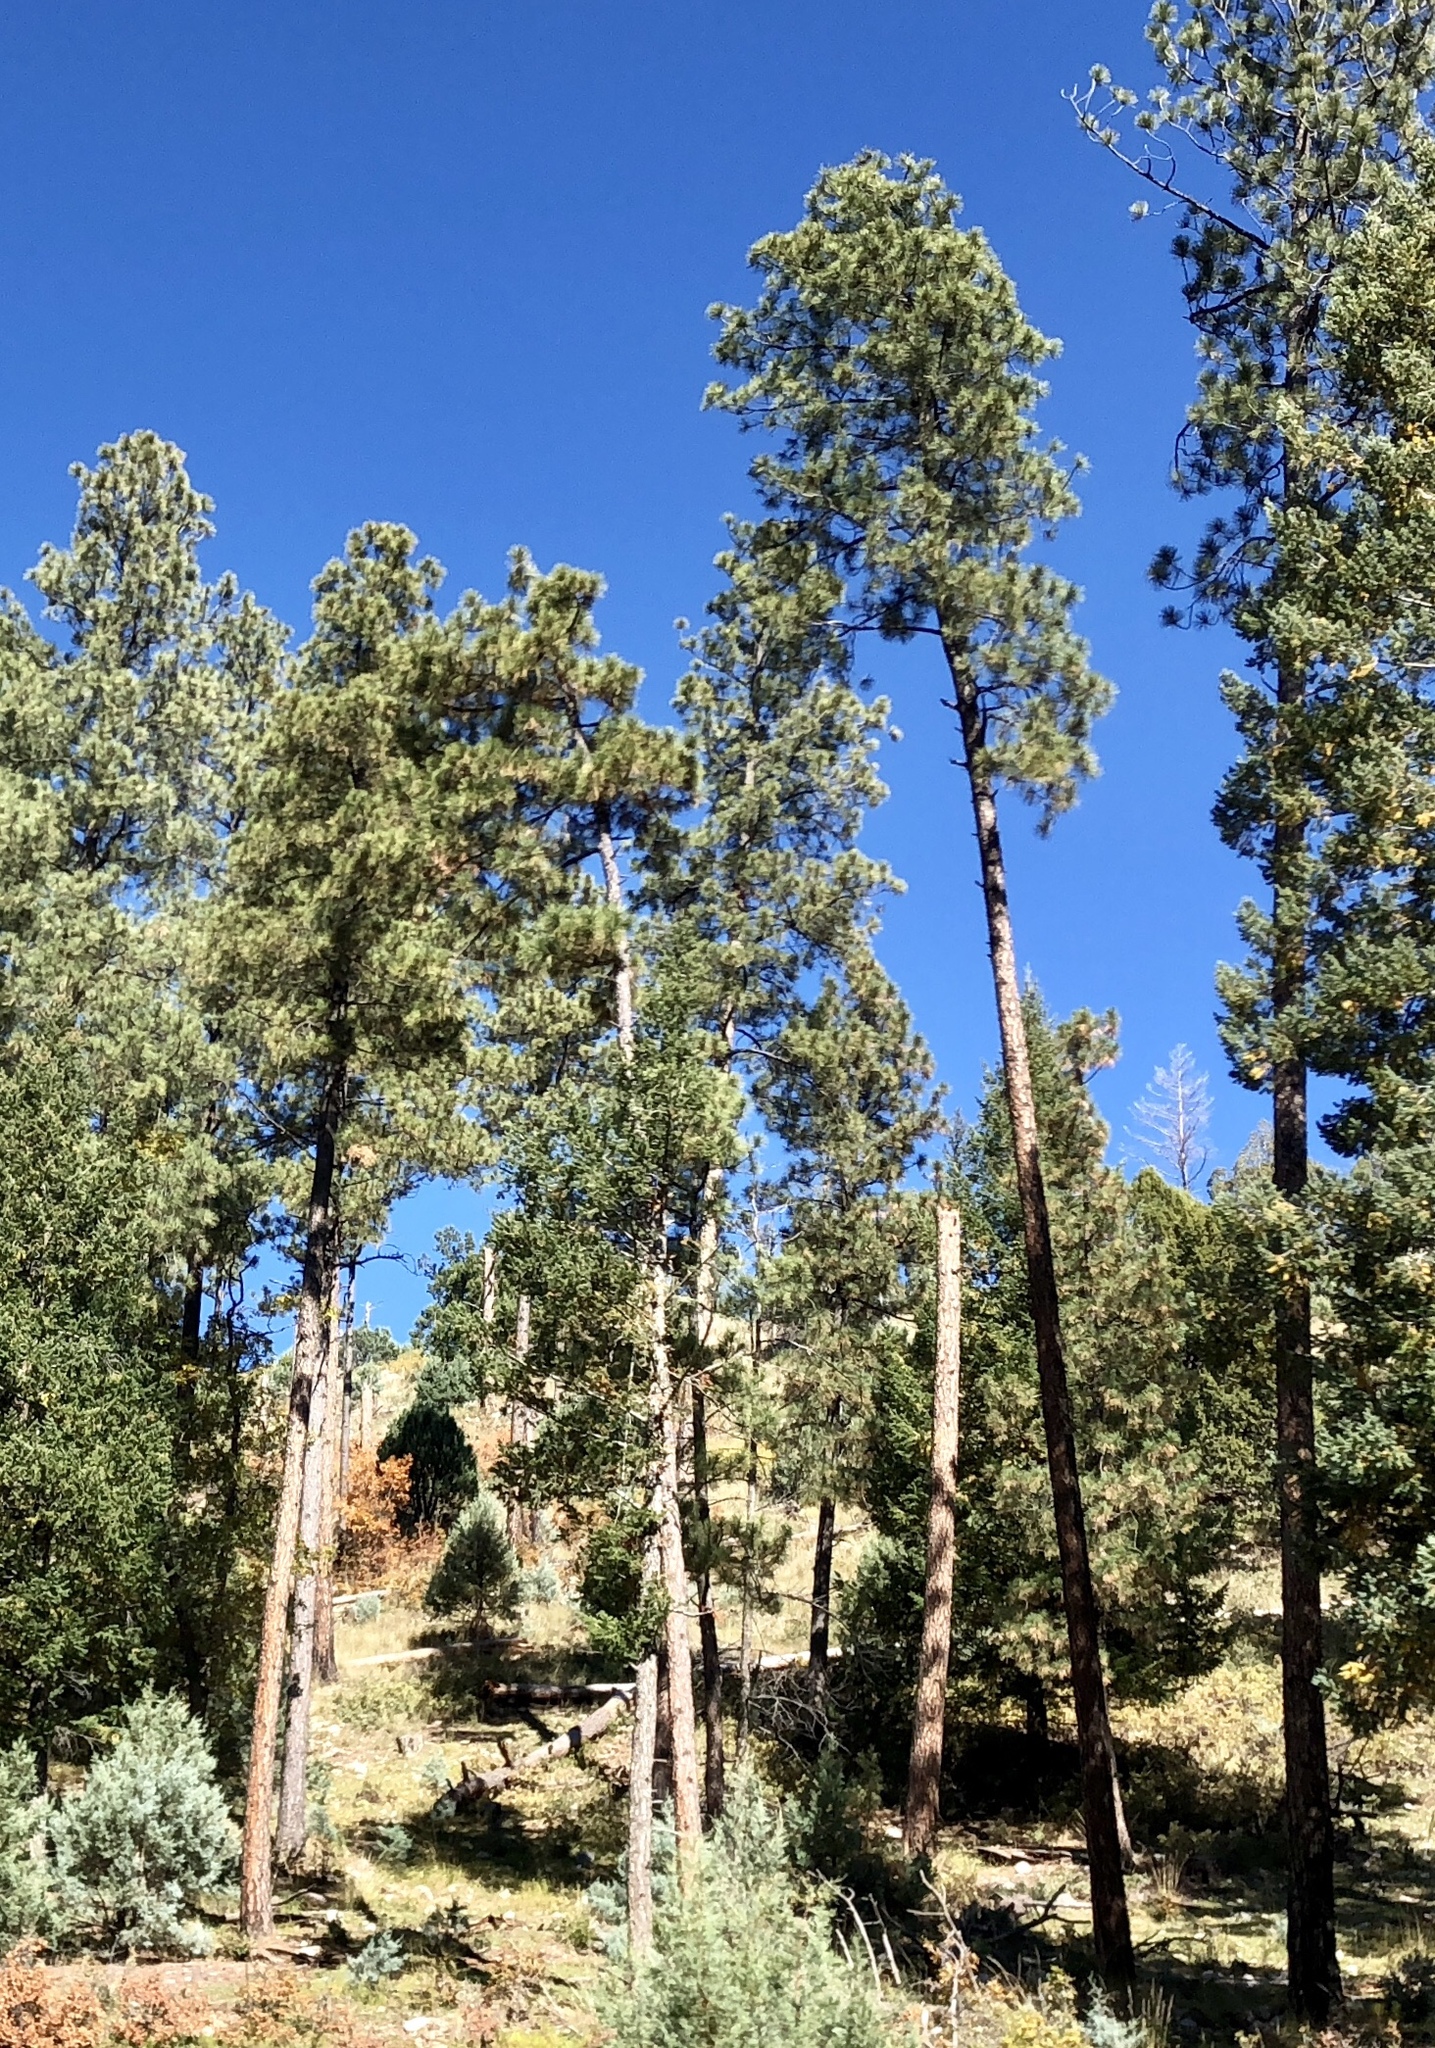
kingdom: Plantae
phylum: Tracheophyta
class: Pinopsida
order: Pinales
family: Pinaceae
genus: Pinus
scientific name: Pinus ponderosa
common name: Western yellow-pine
